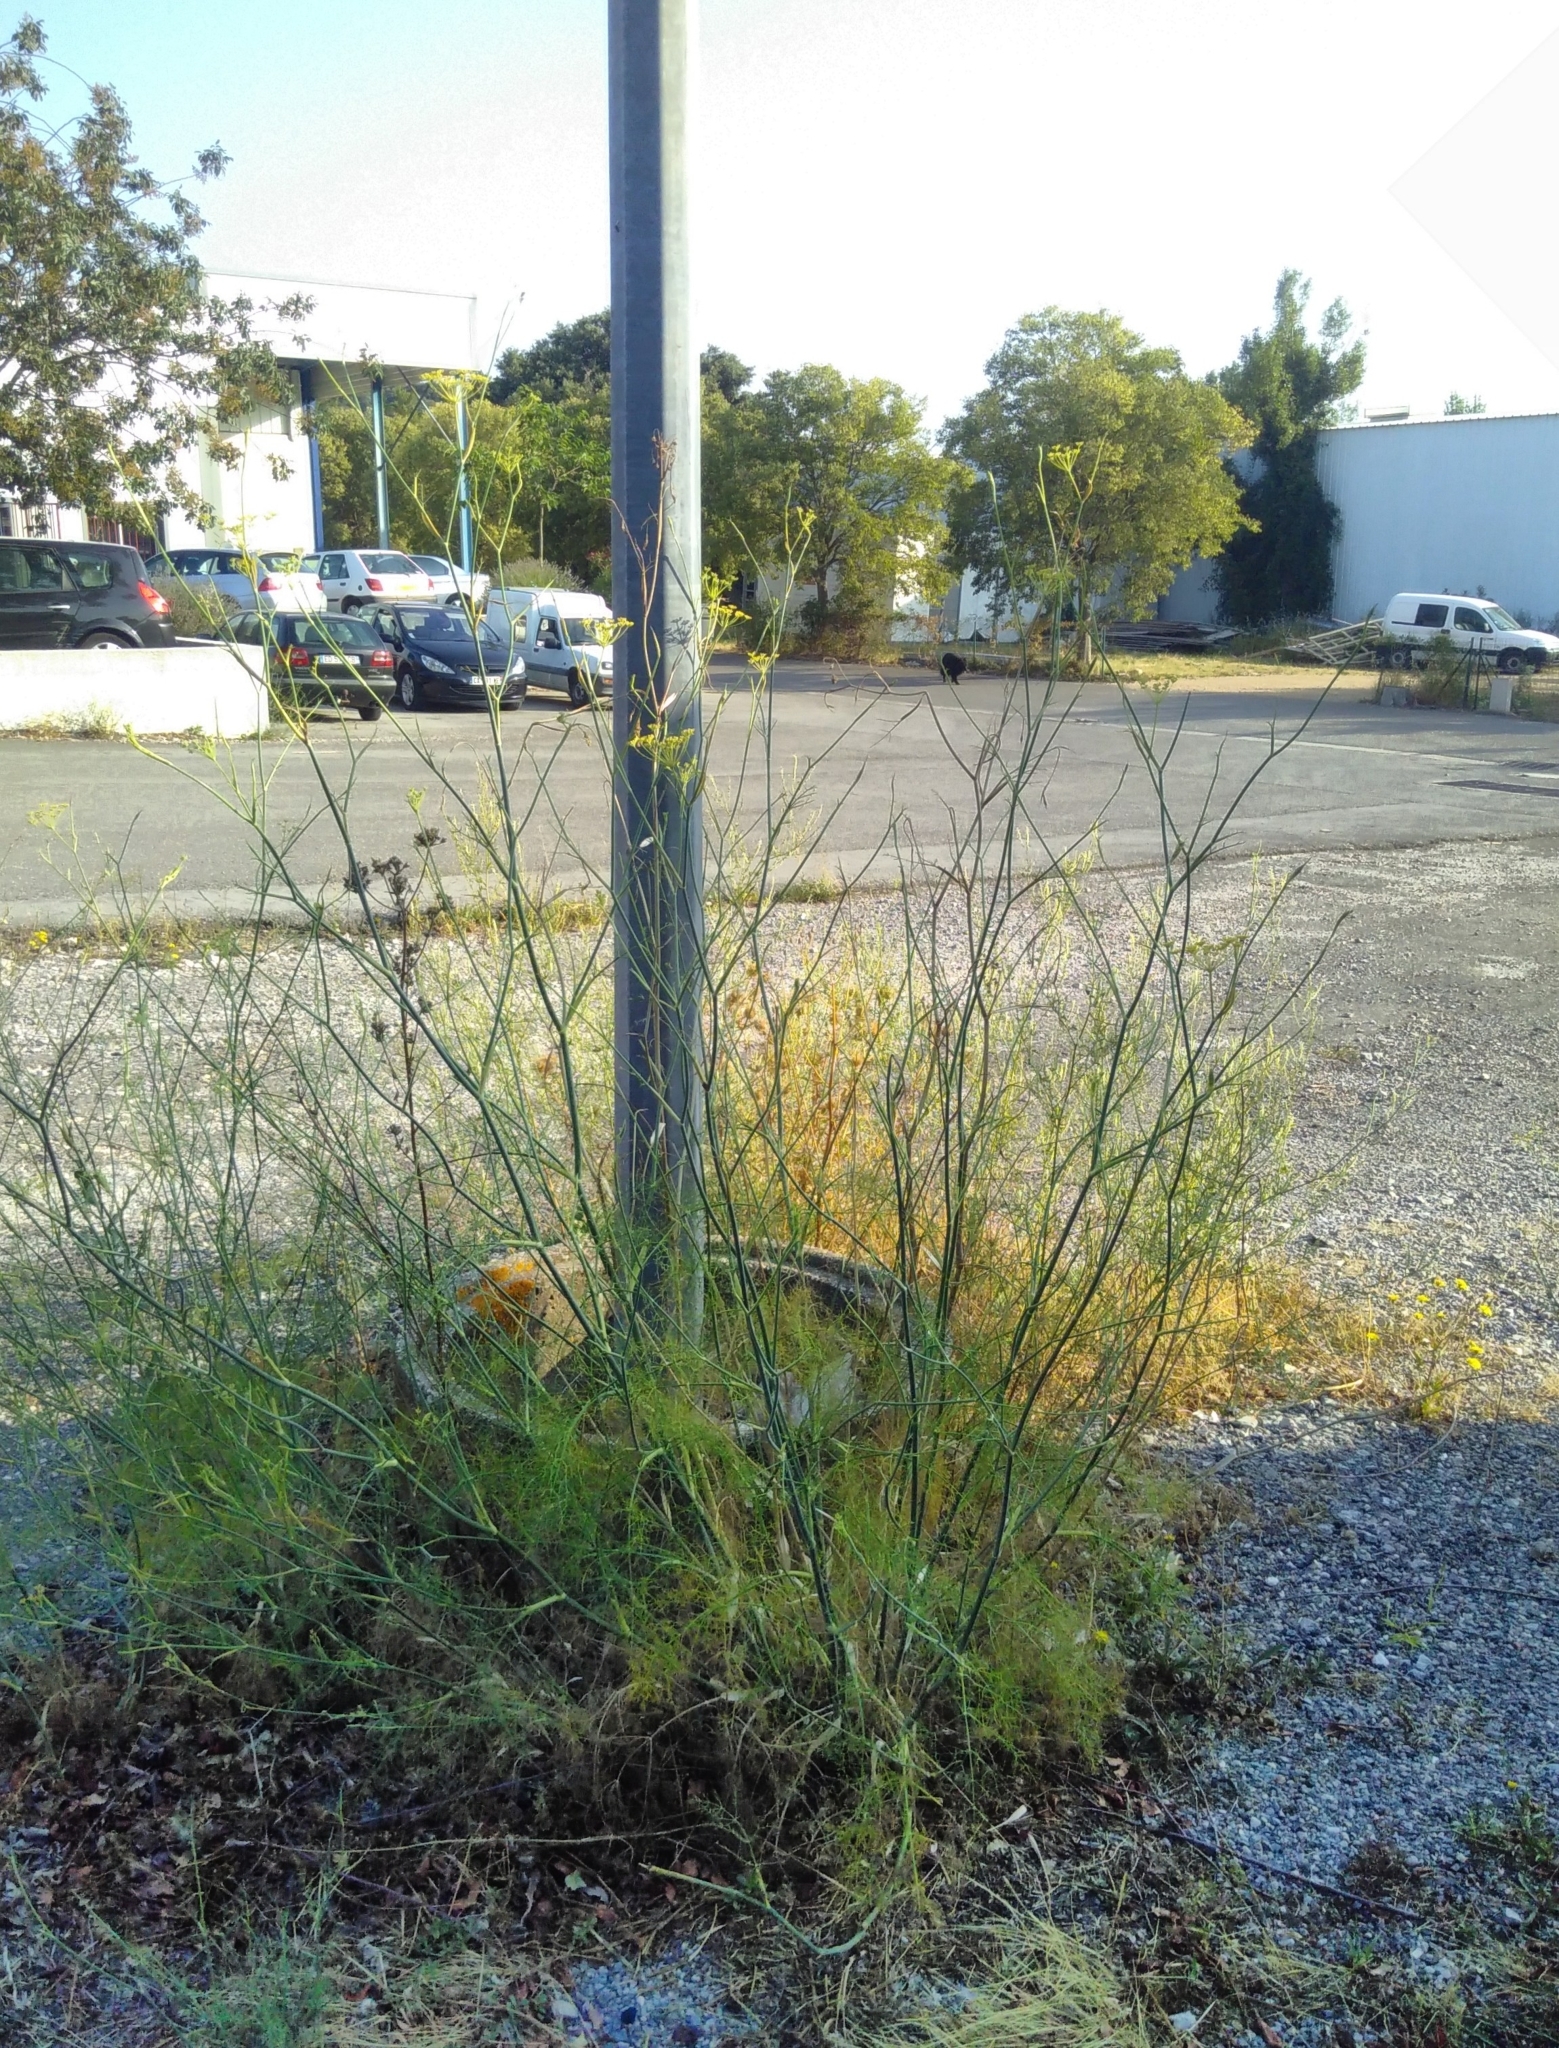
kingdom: Plantae
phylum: Tracheophyta
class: Magnoliopsida
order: Apiales
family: Apiaceae
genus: Foeniculum
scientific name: Foeniculum vulgare
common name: Fennel
